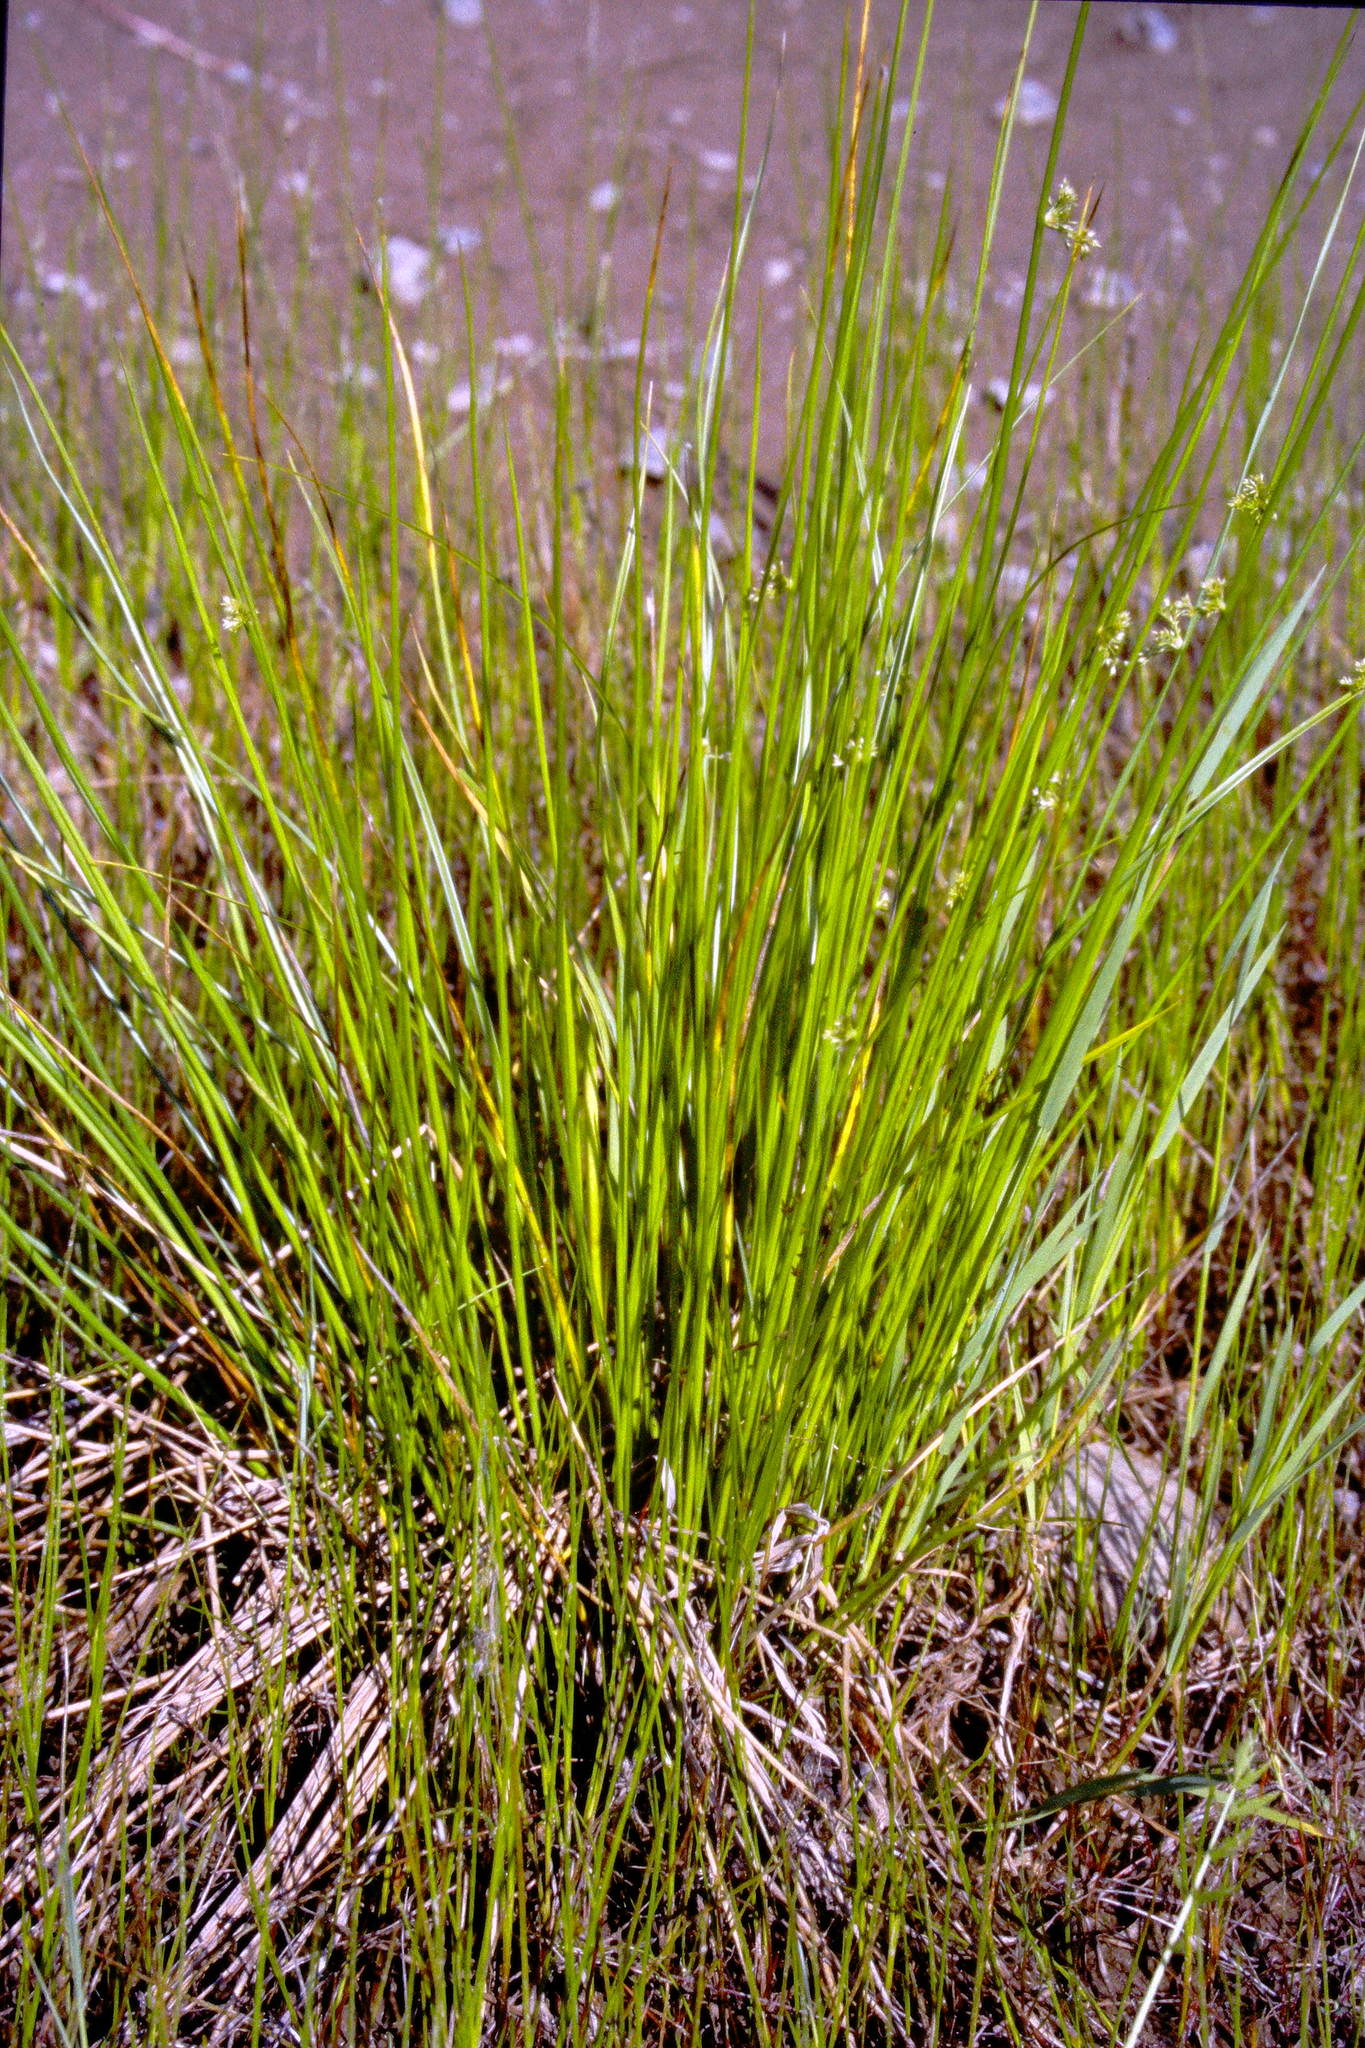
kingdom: Plantae
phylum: Tracheophyta
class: Liliopsida
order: Poales
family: Juncaceae
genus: Juncus
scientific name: Juncus effusus
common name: Soft rush
